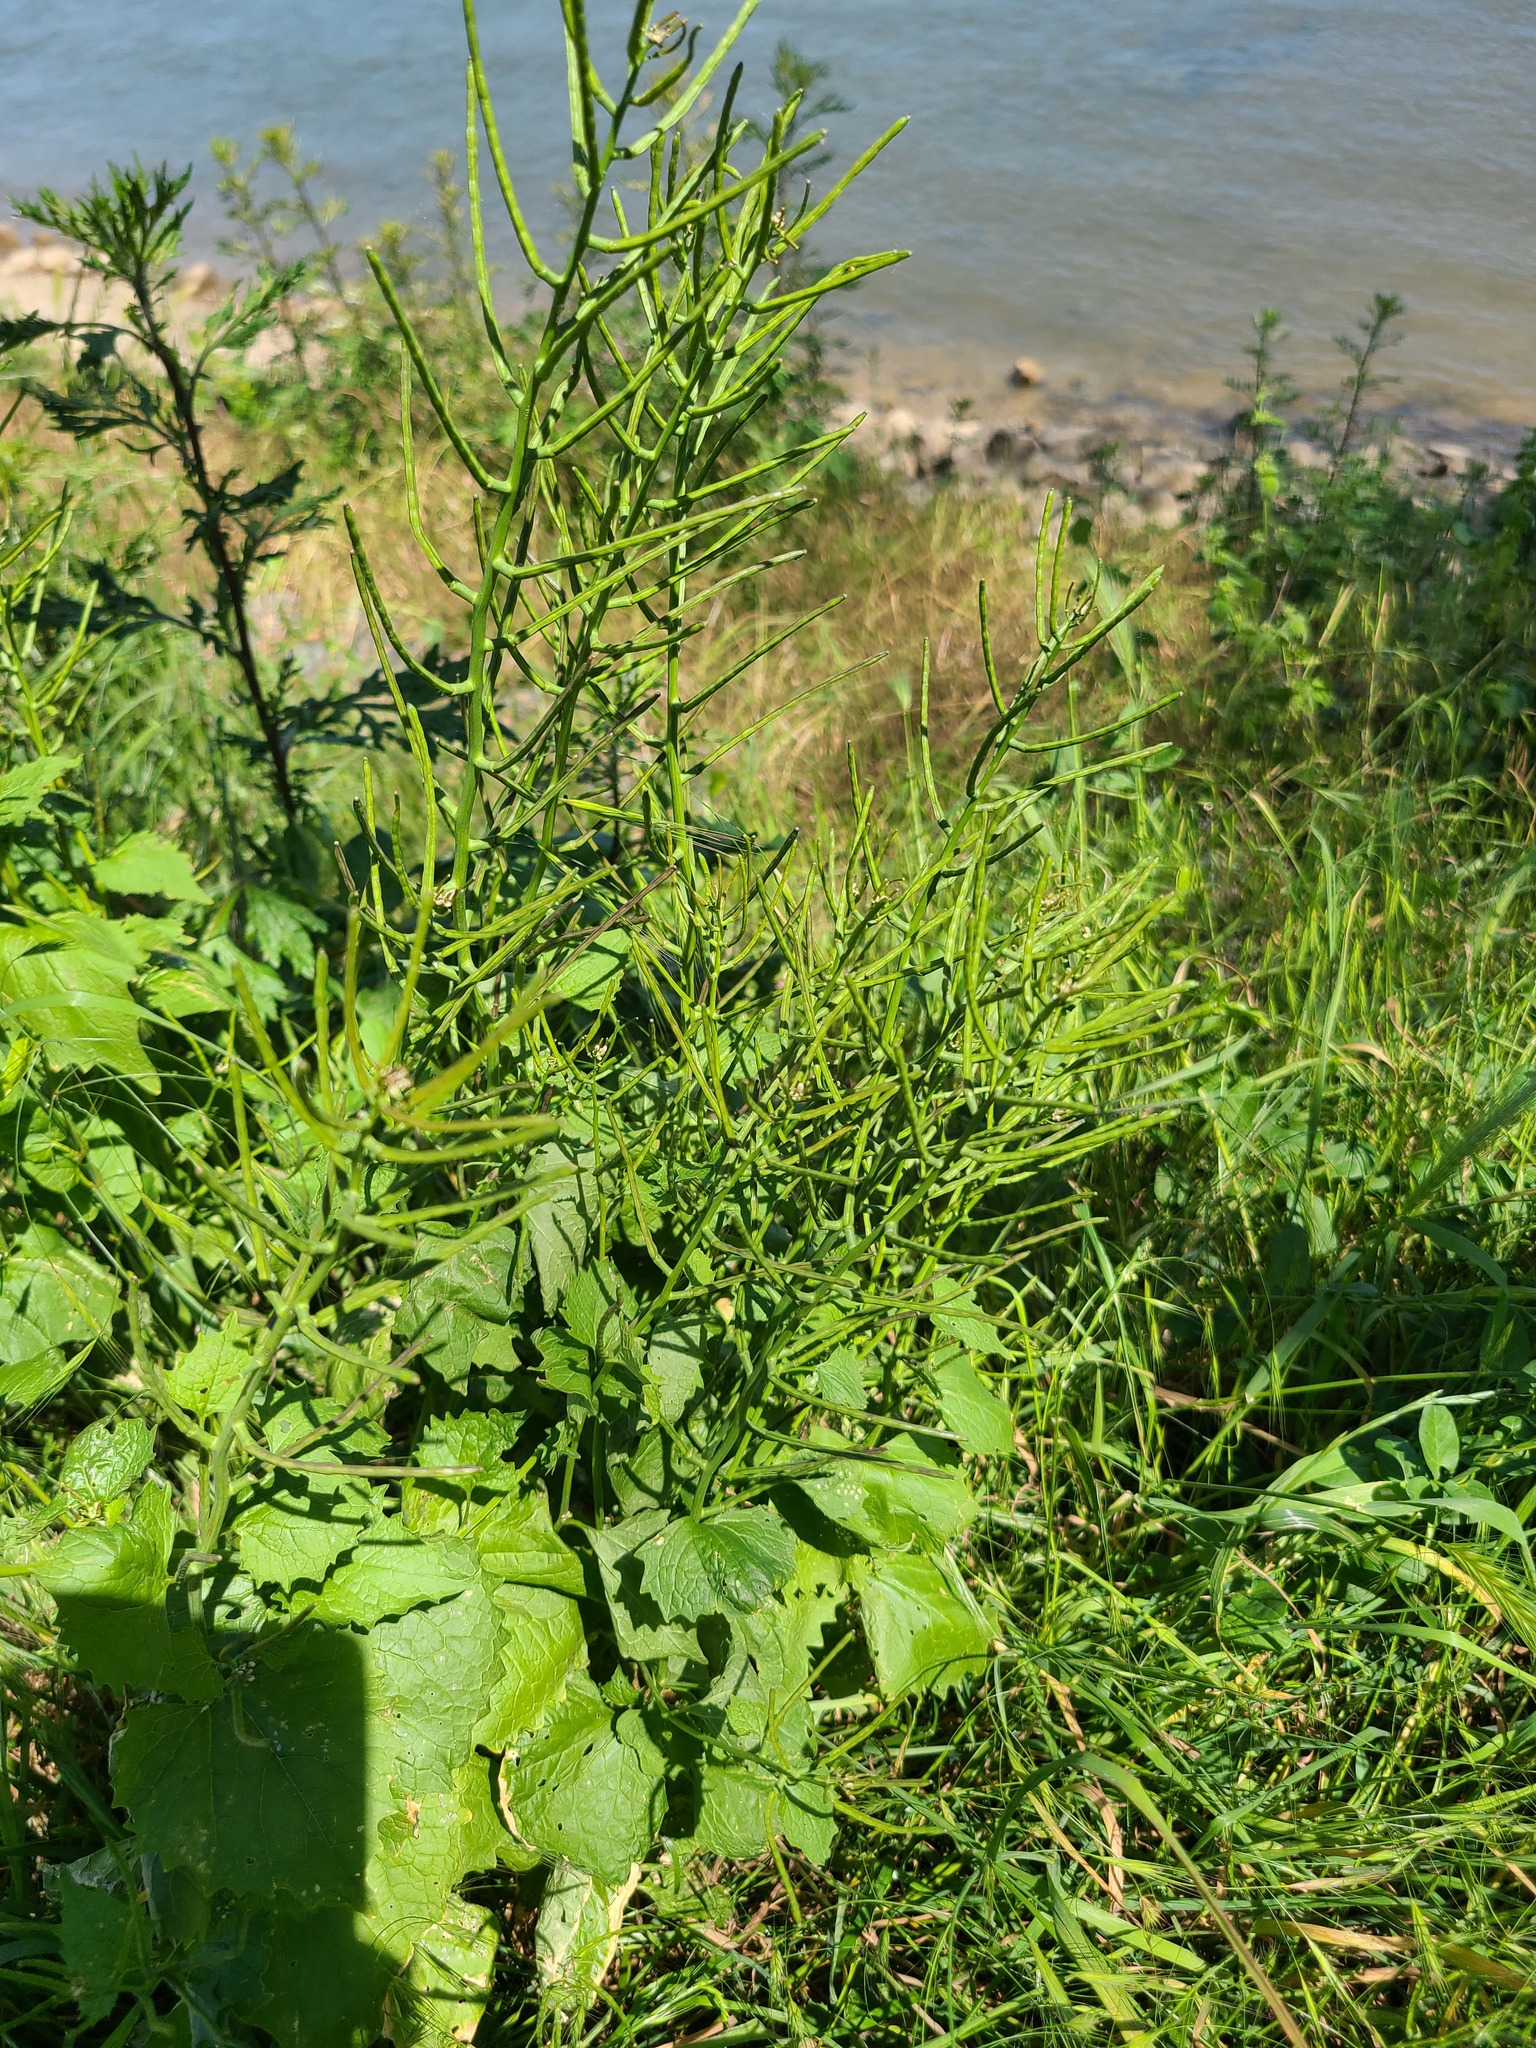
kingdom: Plantae
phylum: Tracheophyta
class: Magnoliopsida
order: Brassicales
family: Brassicaceae
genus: Alliaria
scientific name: Alliaria petiolata
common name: Garlic mustard
